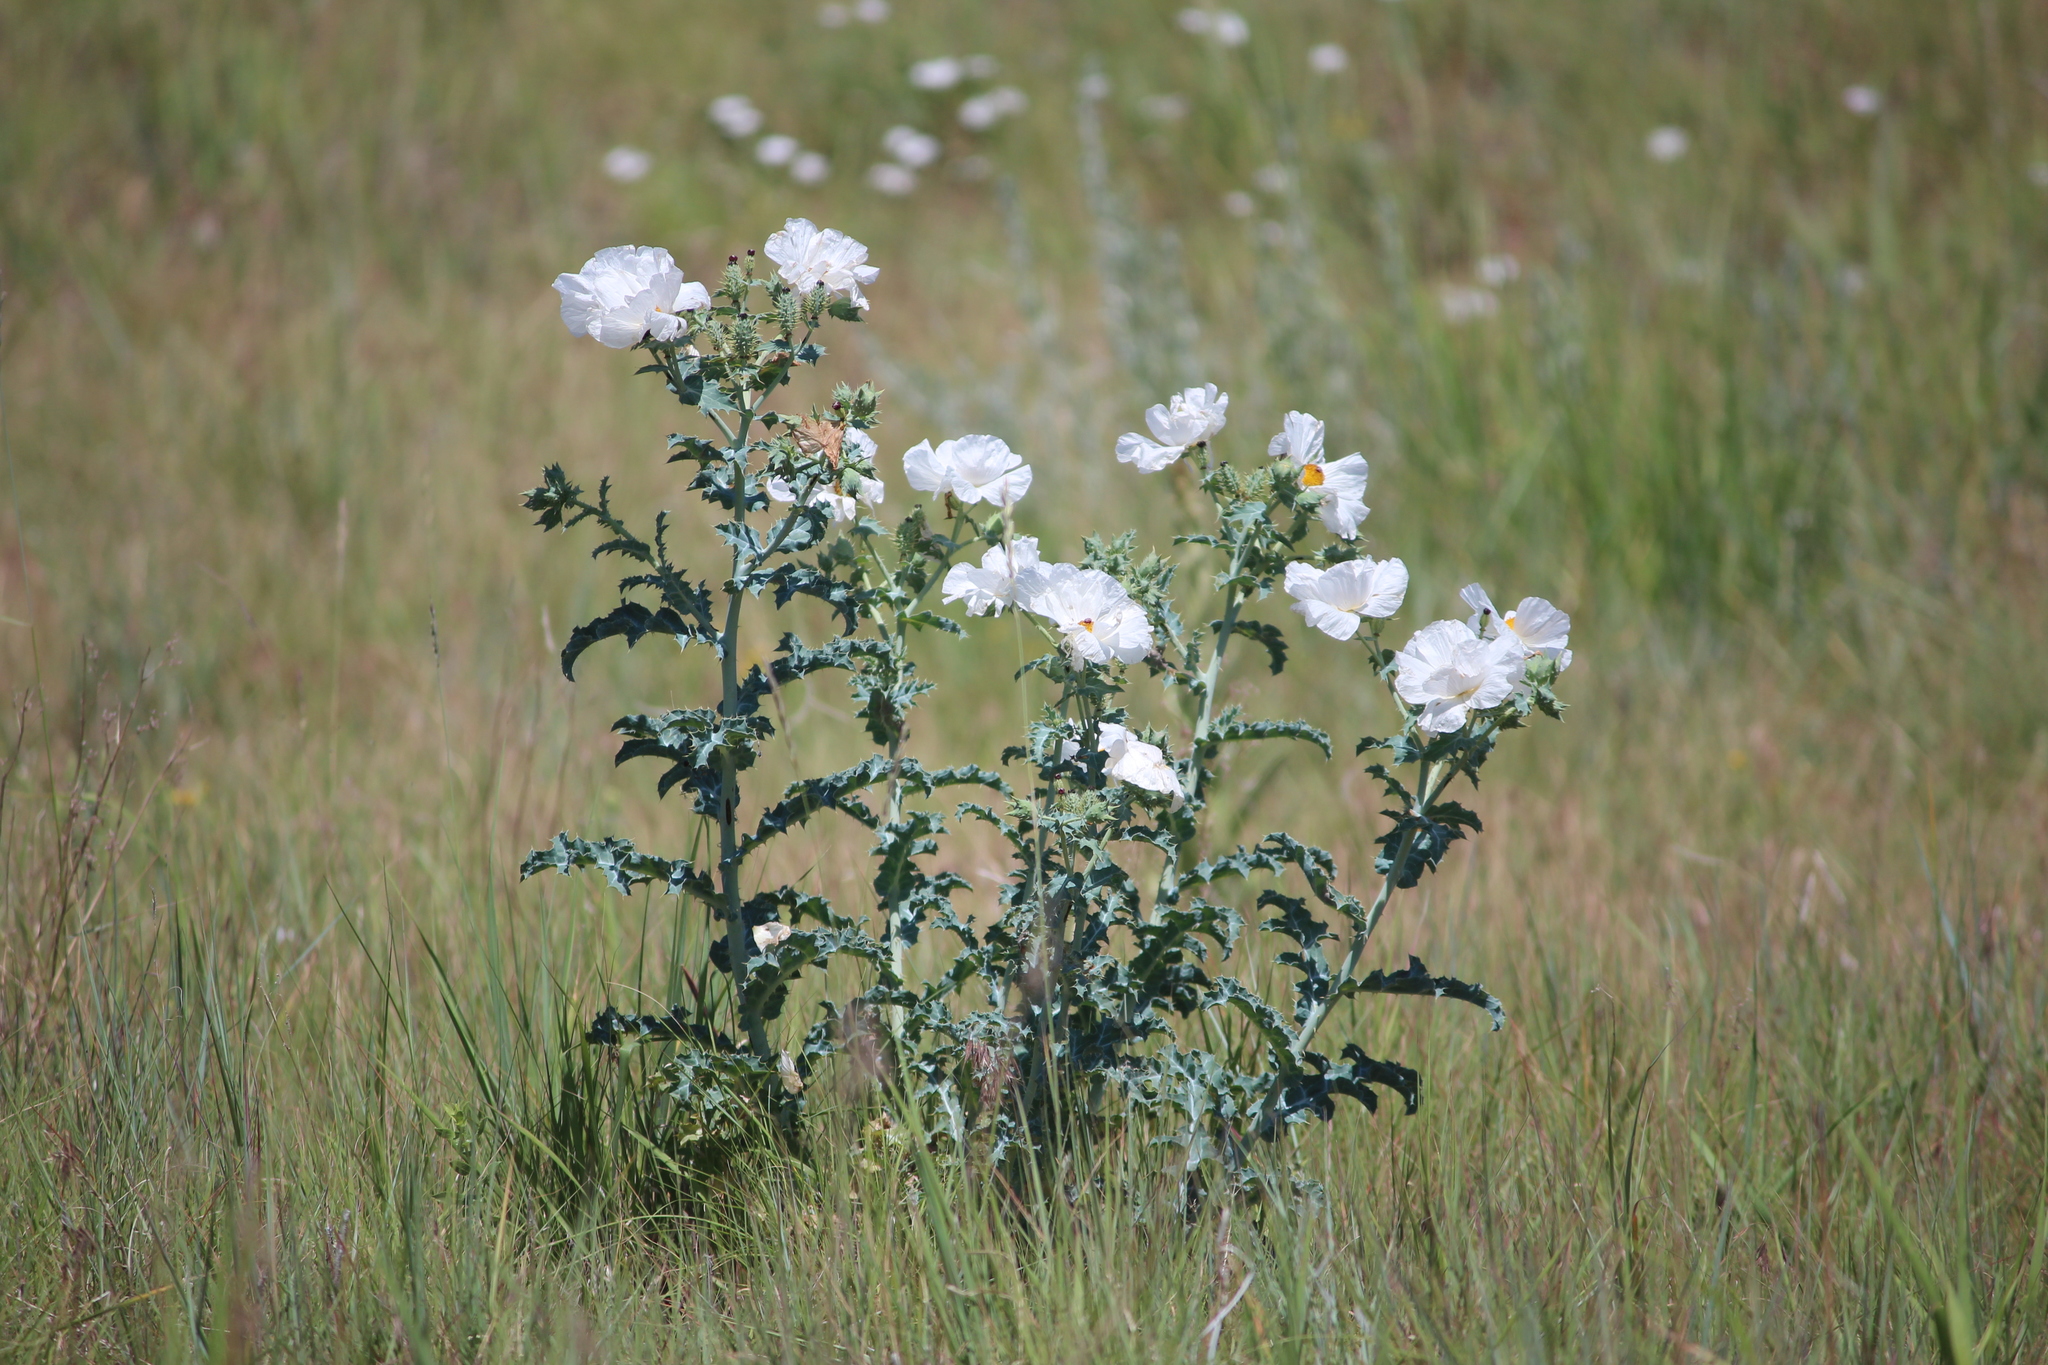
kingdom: Plantae
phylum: Tracheophyta
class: Magnoliopsida
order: Ranunculales
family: Papaveraceae
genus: Argemone
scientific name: Argemone polyanthemos
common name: Plains prickly-poppy
